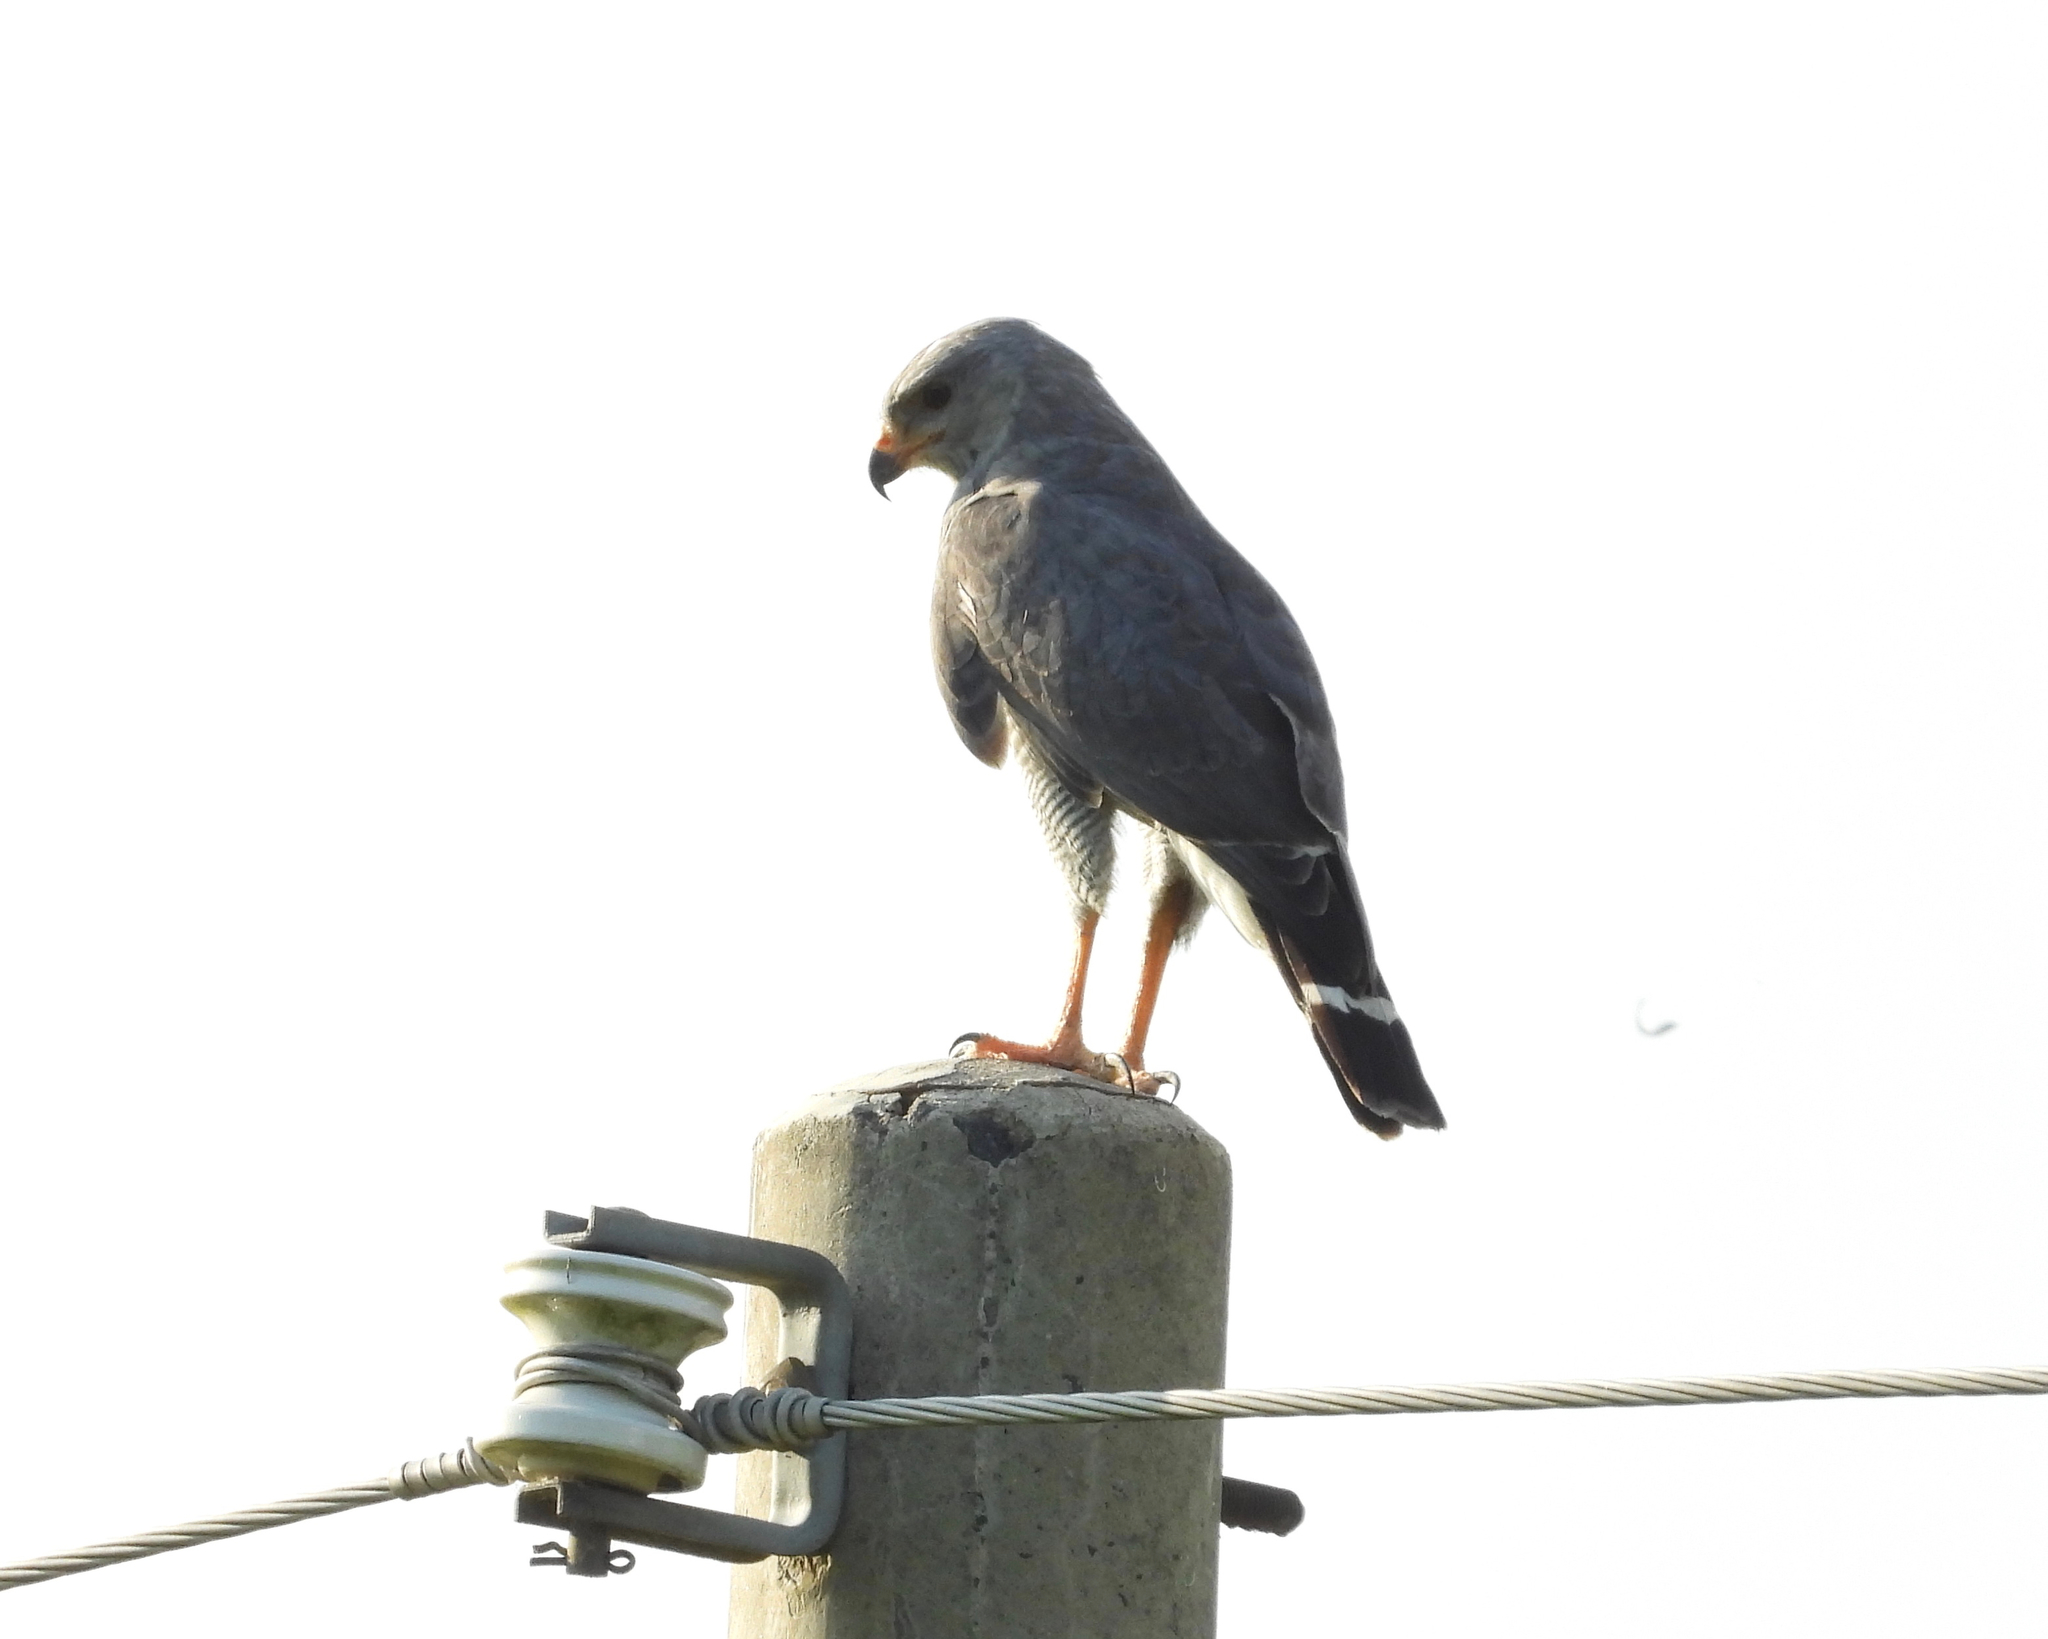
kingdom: Animalia
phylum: Chordata
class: Aves
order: Accipitriformes
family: Accipitridae
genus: Buteo
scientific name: Buteo nitidus
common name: Grey-lined hawk
